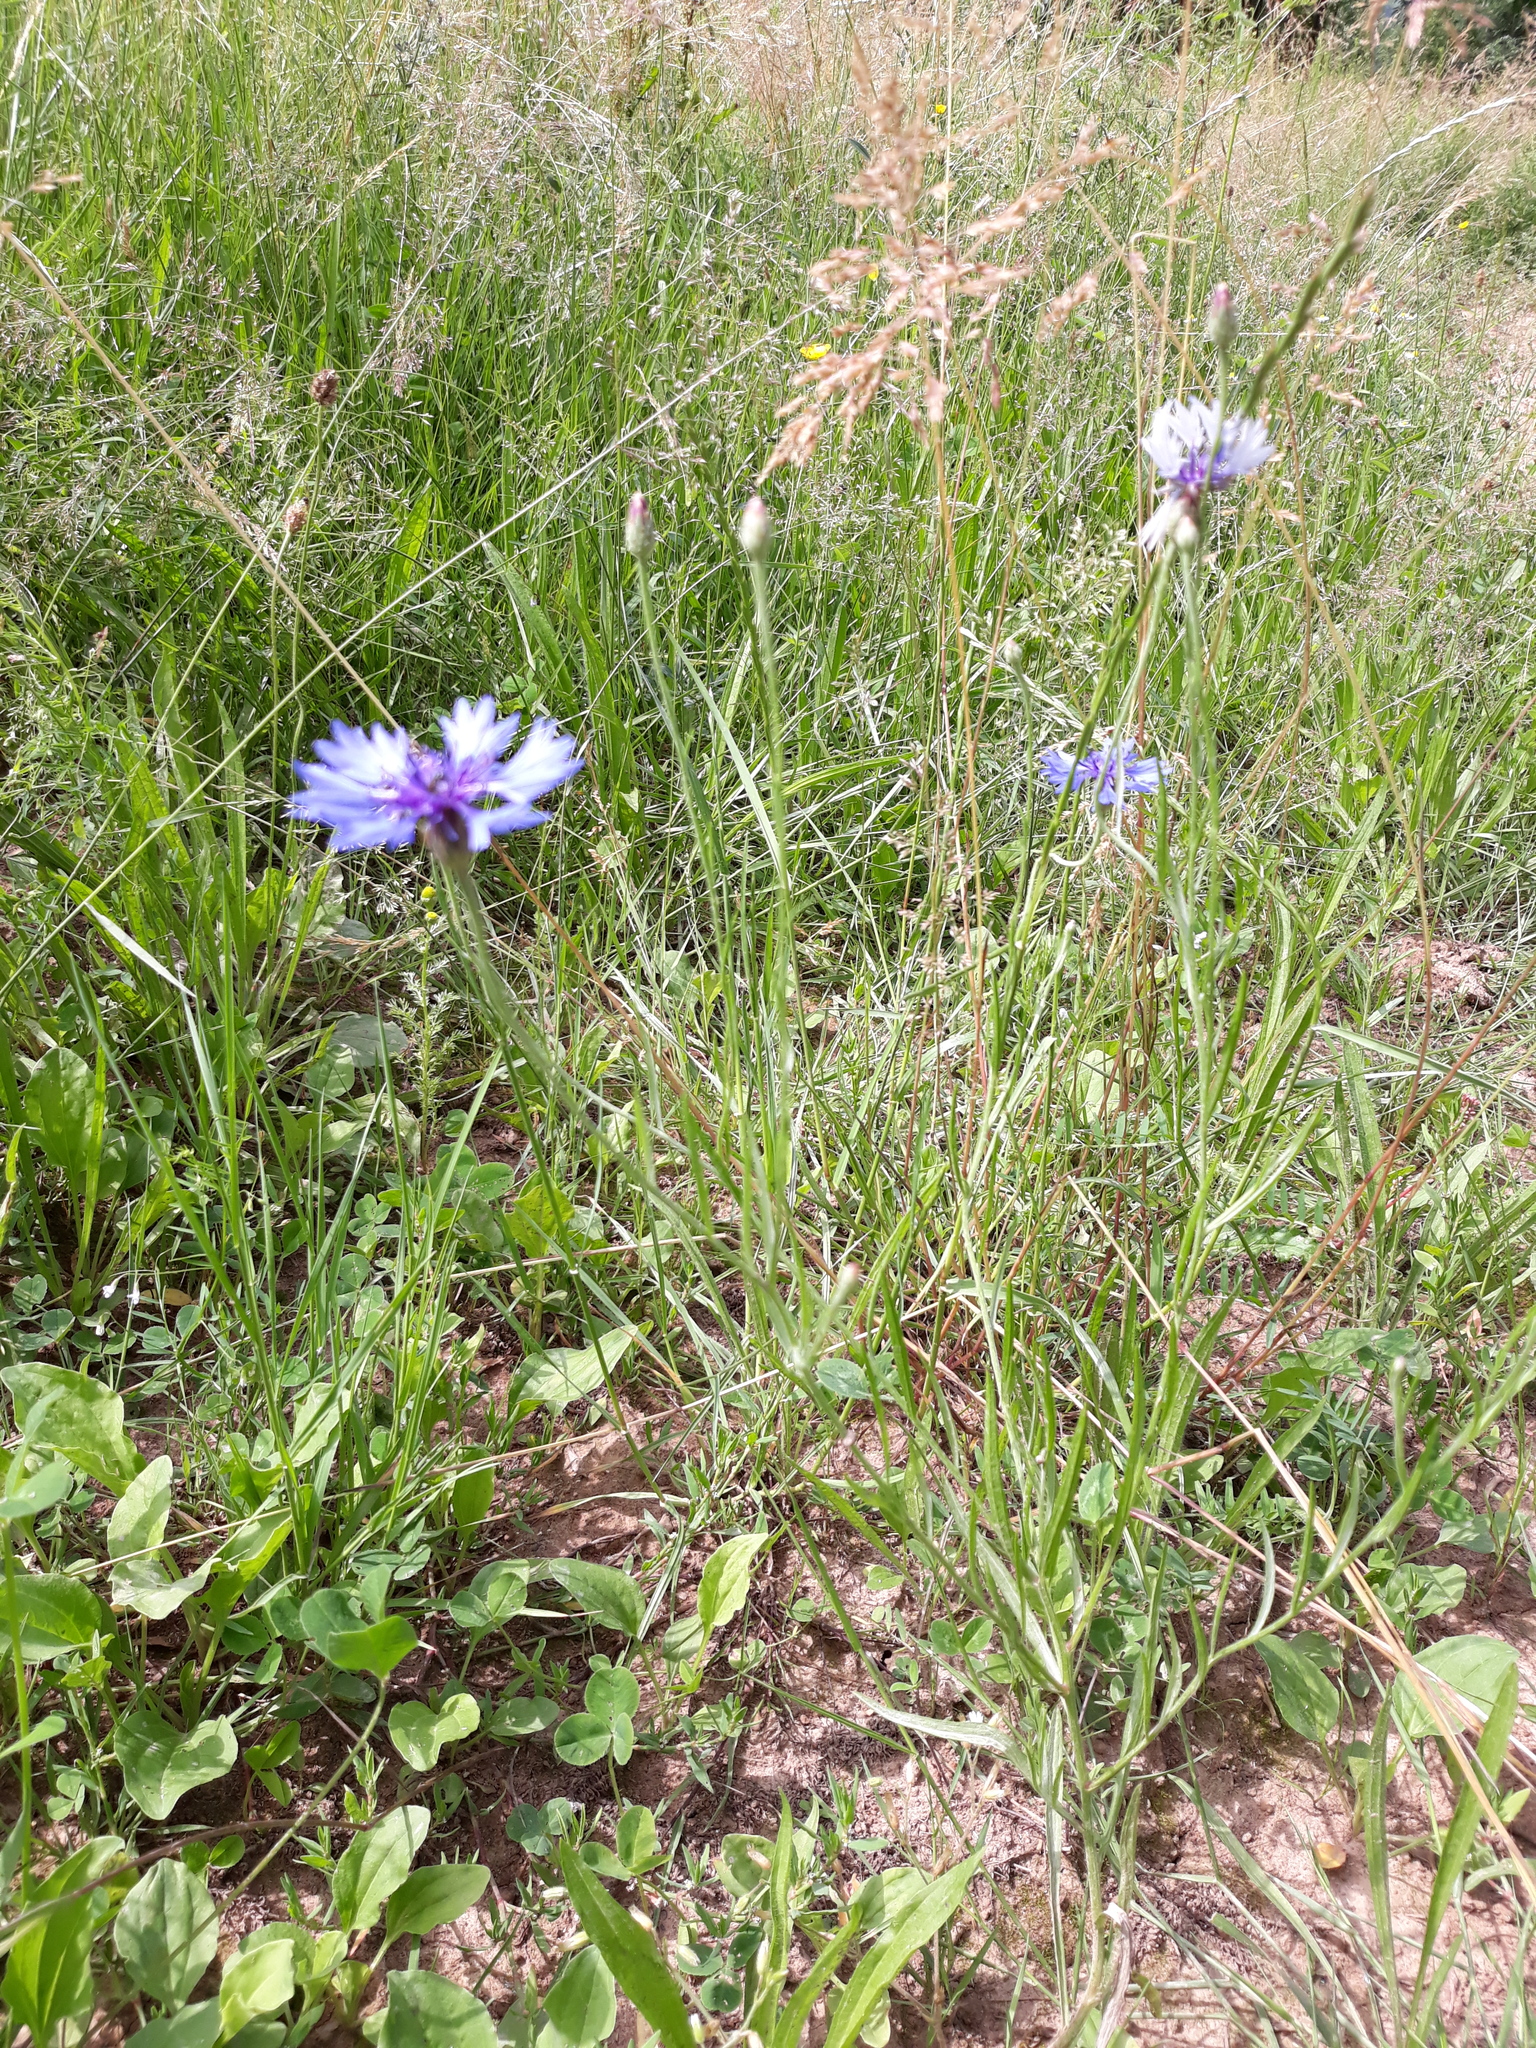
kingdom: Plantae
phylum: Tracheophyta
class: Magnoliopsida
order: Asterales
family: Asteraceae
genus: Centaurea
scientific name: Centaurea cyanus
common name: Cornflower
